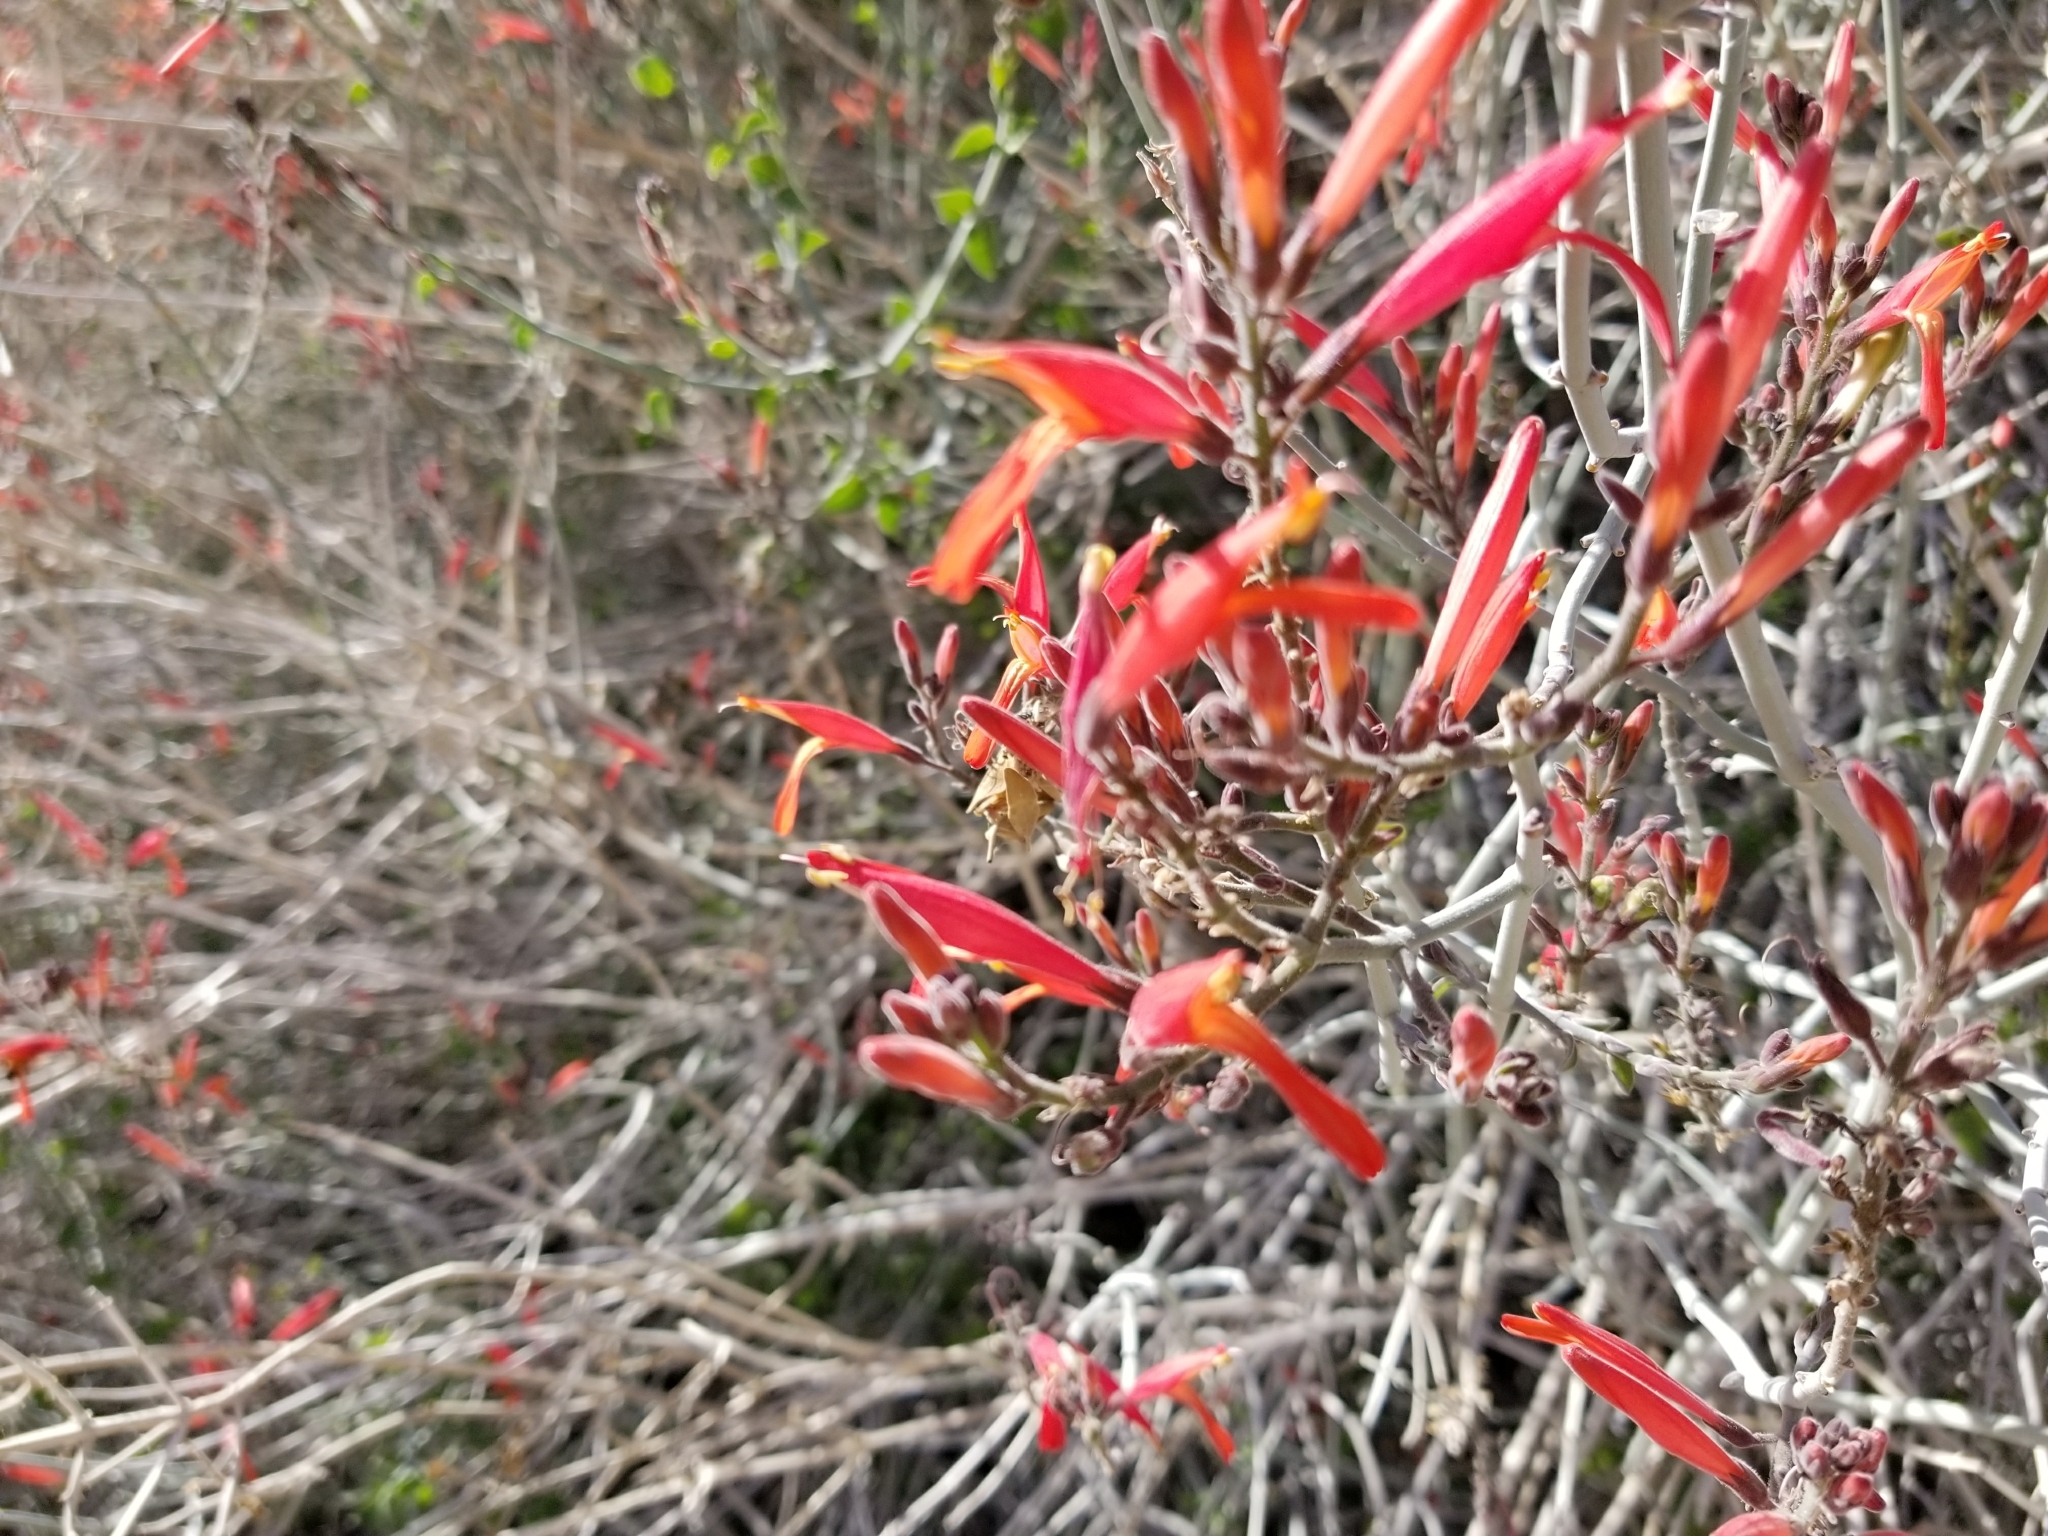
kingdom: Plantae
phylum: Tracheophyta
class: Magnoliopsida
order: Lamiales
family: Acanthaceae
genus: Justicia
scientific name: Justicia californica
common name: Chuparosa-honeysuckle
